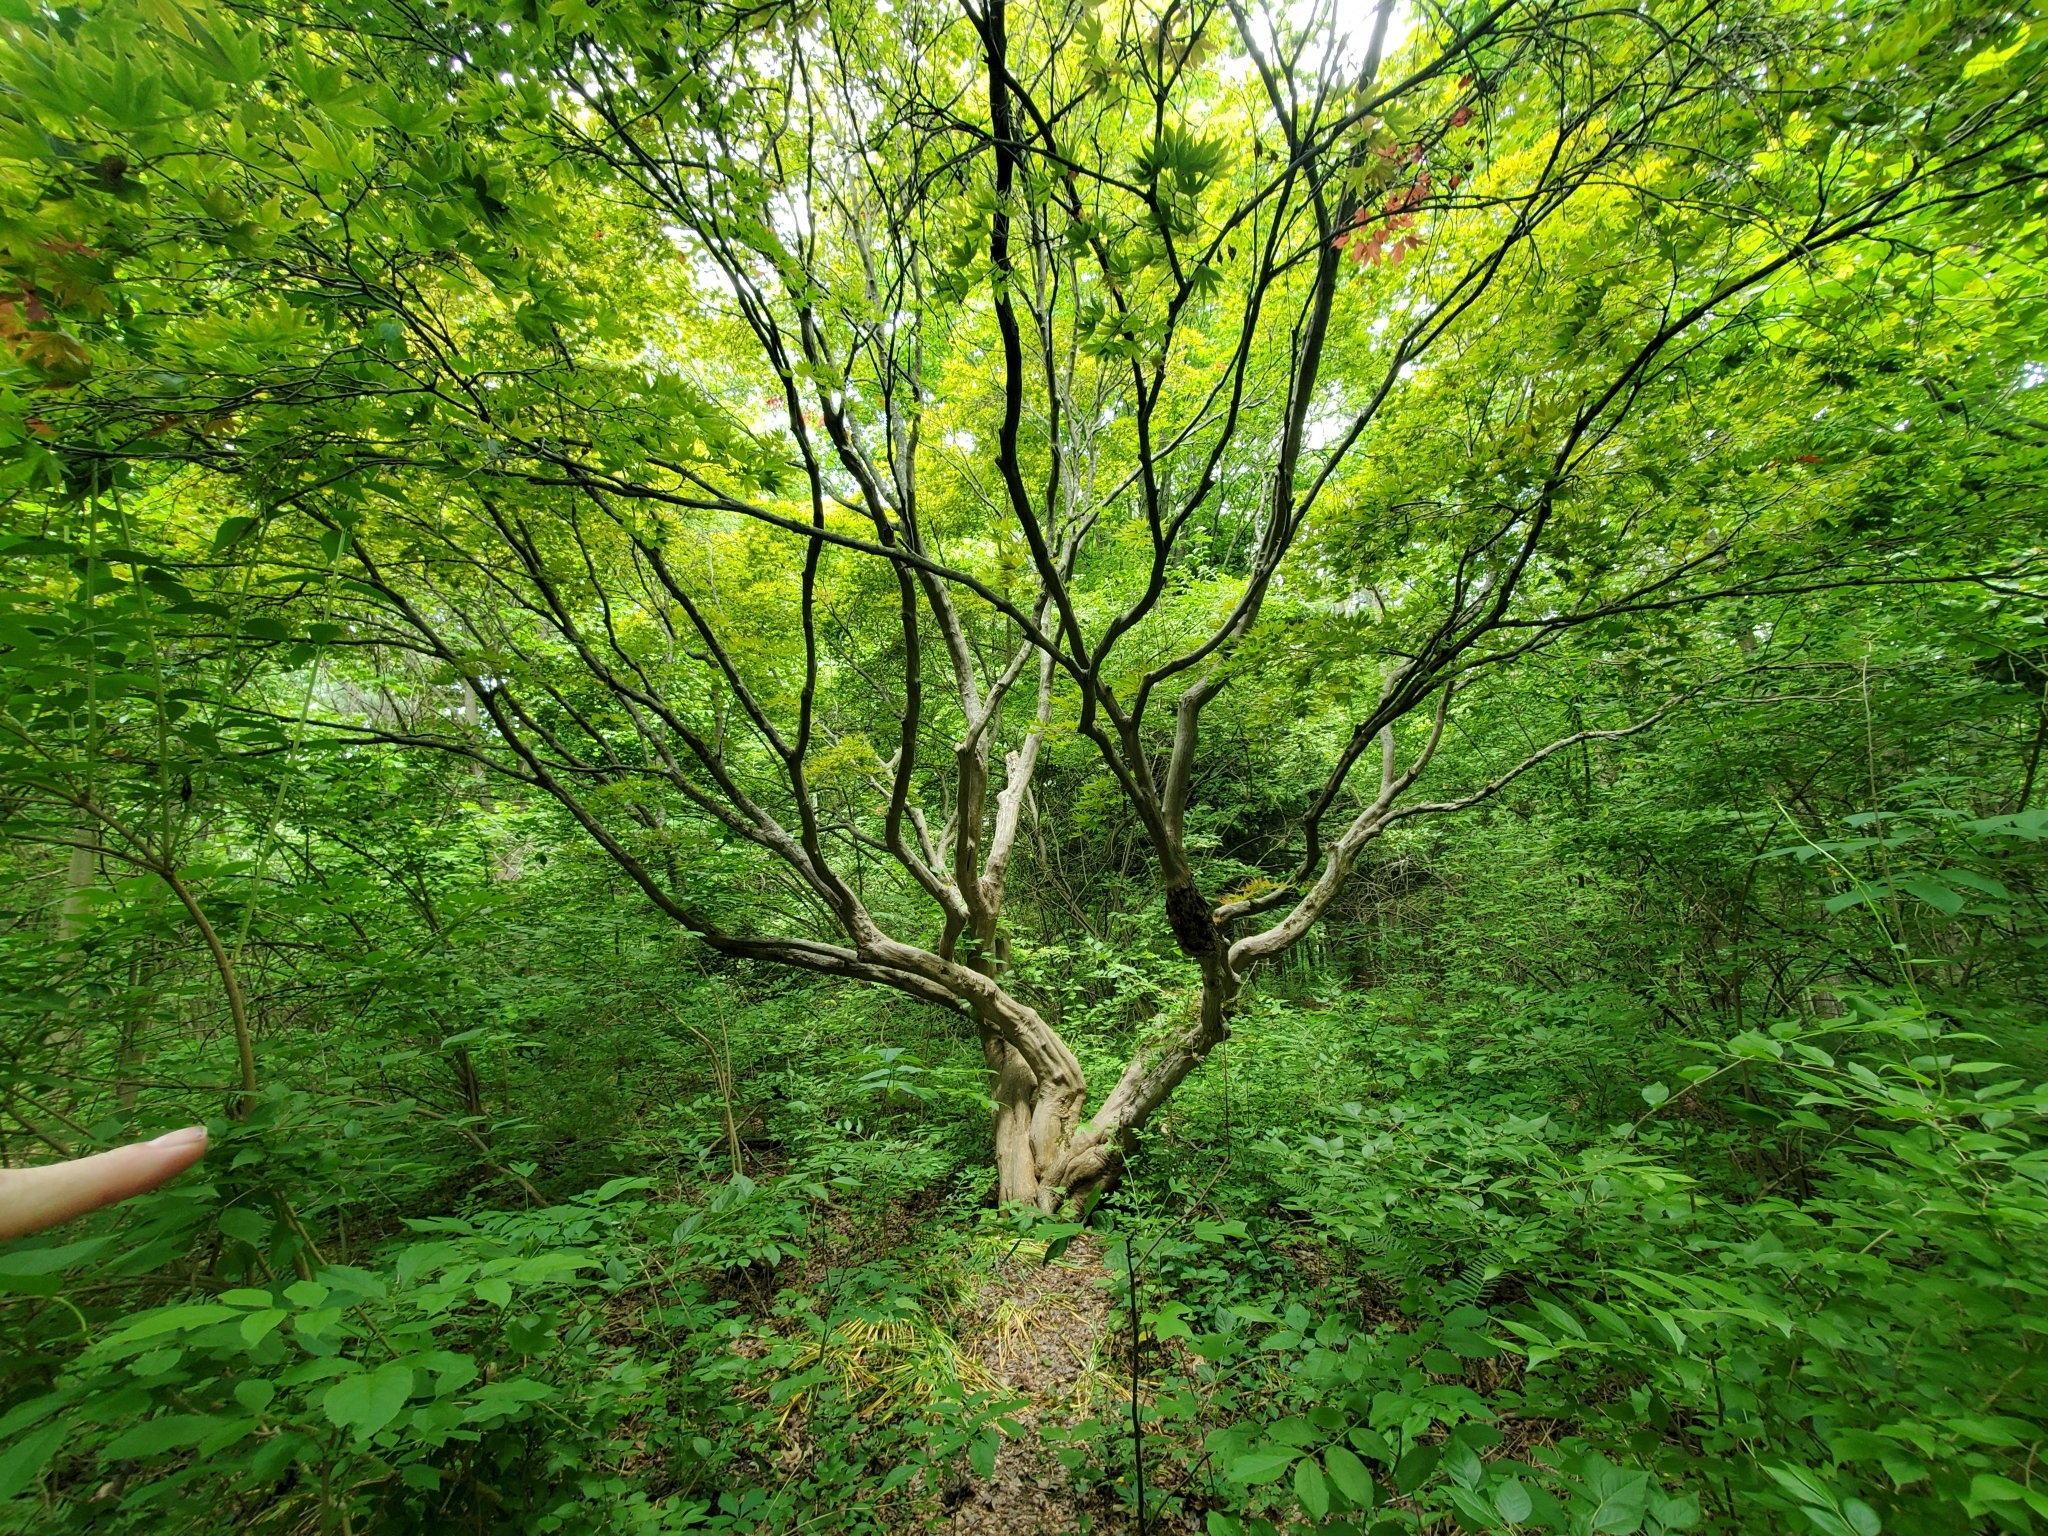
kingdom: Plantae
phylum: Tracheophyta
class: Magnoliopsida
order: Sapindales
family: Sapindaceae
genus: Acer
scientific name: Acer palmatum
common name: Japanese maple
